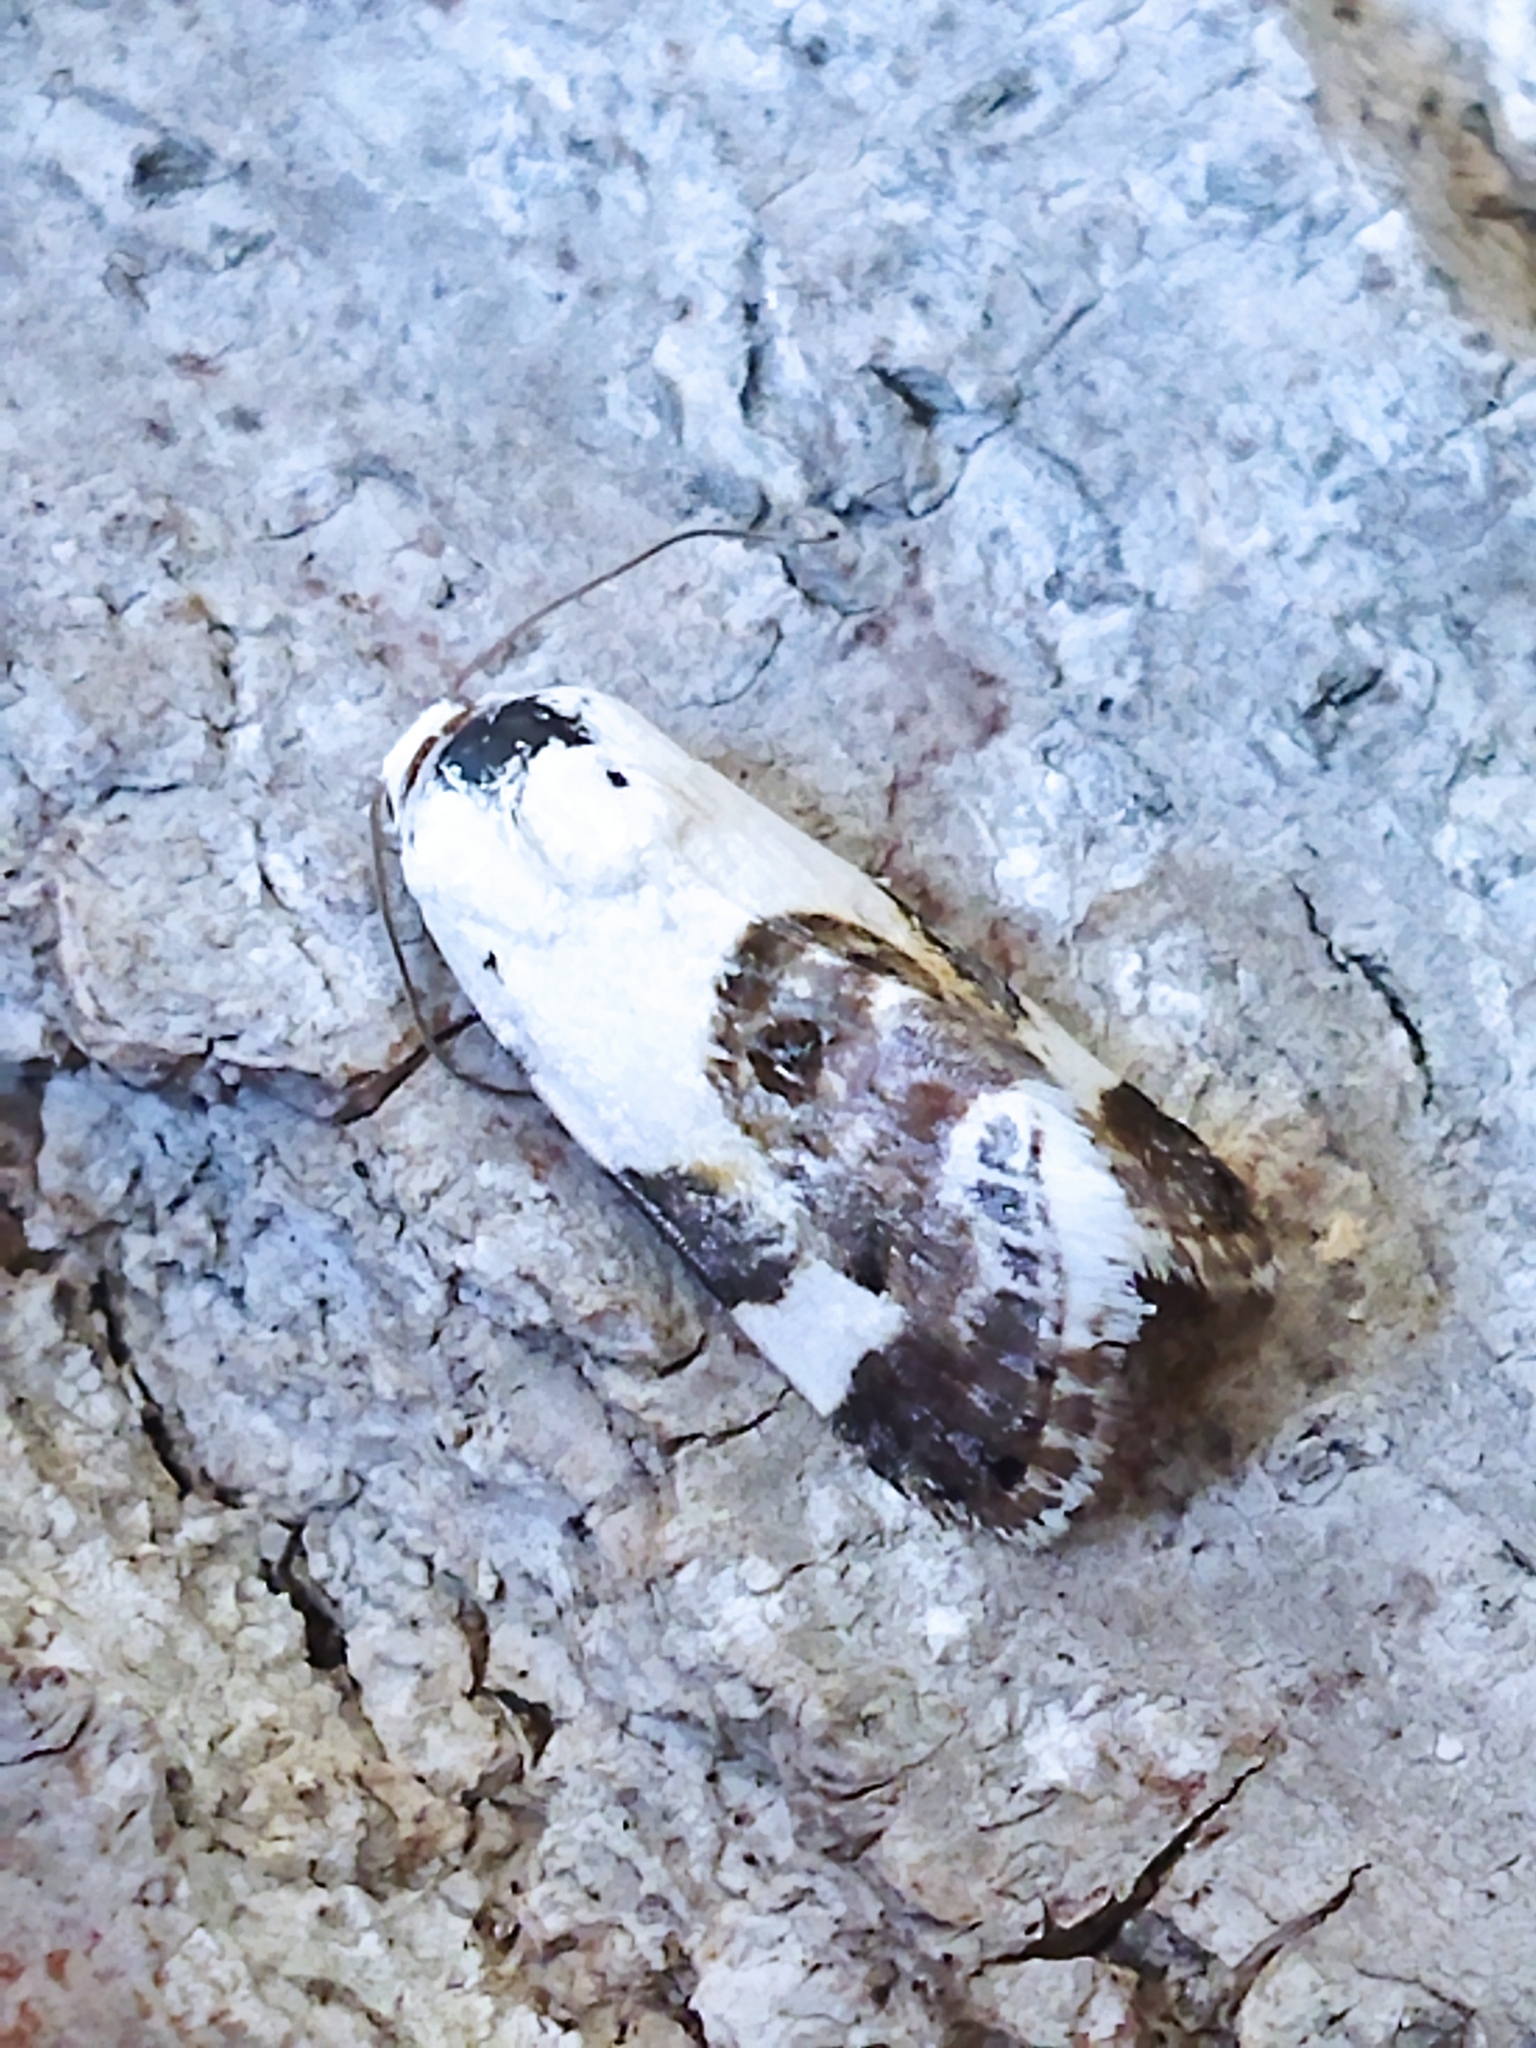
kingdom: Animalia
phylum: Arthropoda
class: Insecta
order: Lepidoptera
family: Noctuidae
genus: Acontia
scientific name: Acontia lucida
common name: Pale shoulder
